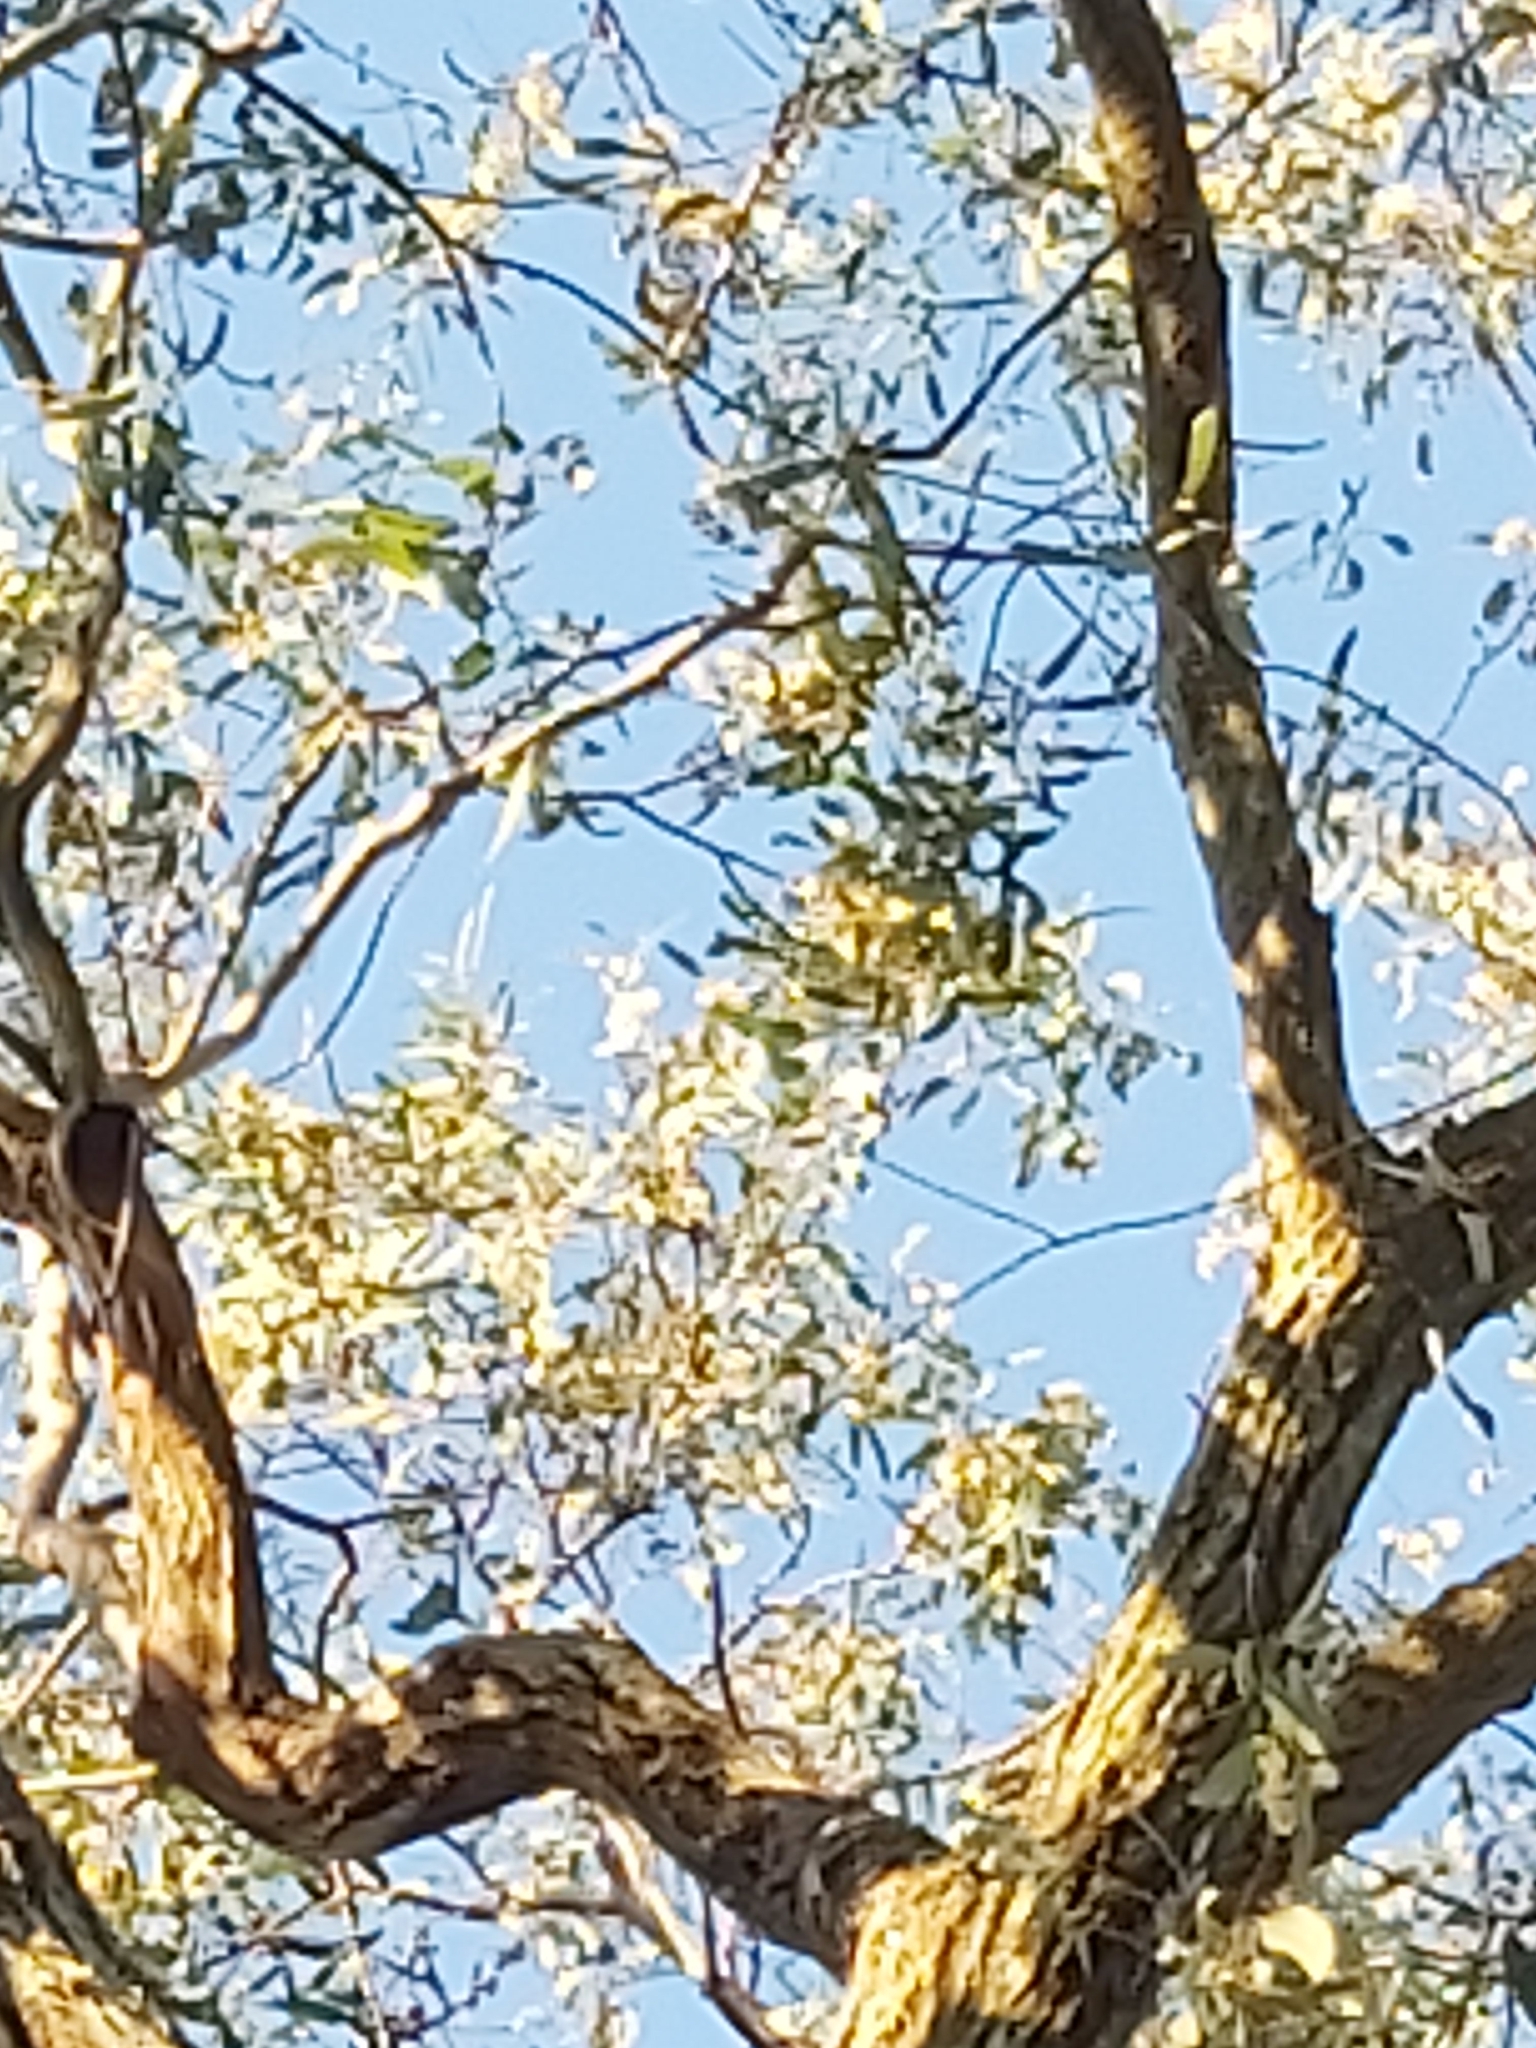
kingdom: Animalia
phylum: Chordata
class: Aves
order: Psittaciformes
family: Psittacidae
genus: Glossopsitta
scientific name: Glossopsitta concinna
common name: Musk lorikeet
